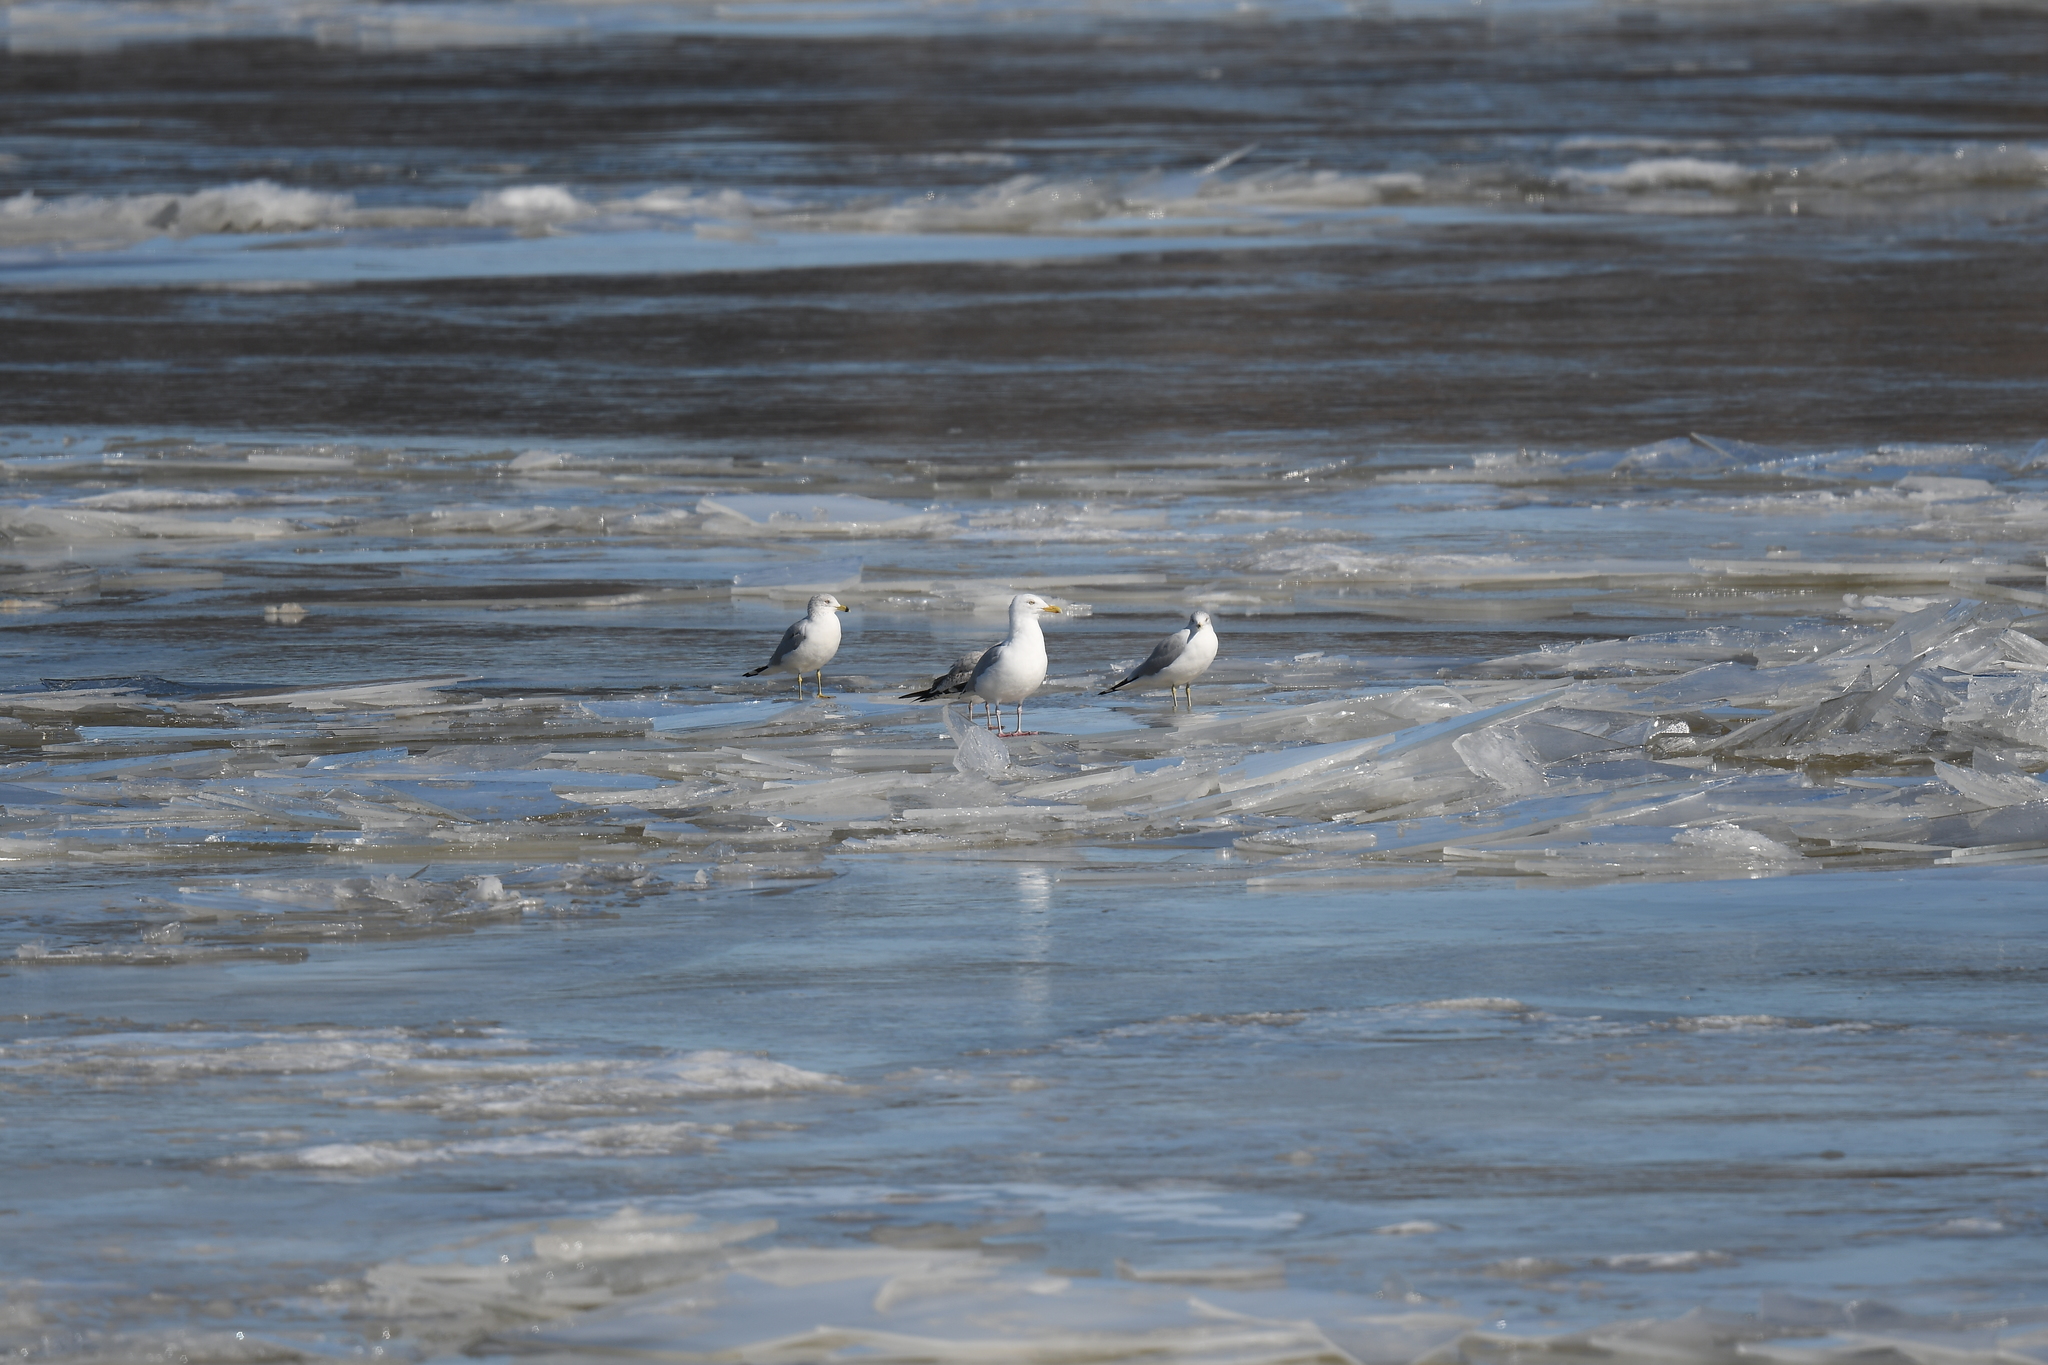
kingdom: Animalia
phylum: Chordata
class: Aves
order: Charadriiformes
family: Laridae
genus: Larus
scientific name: Larus argentatus
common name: Herring gull
